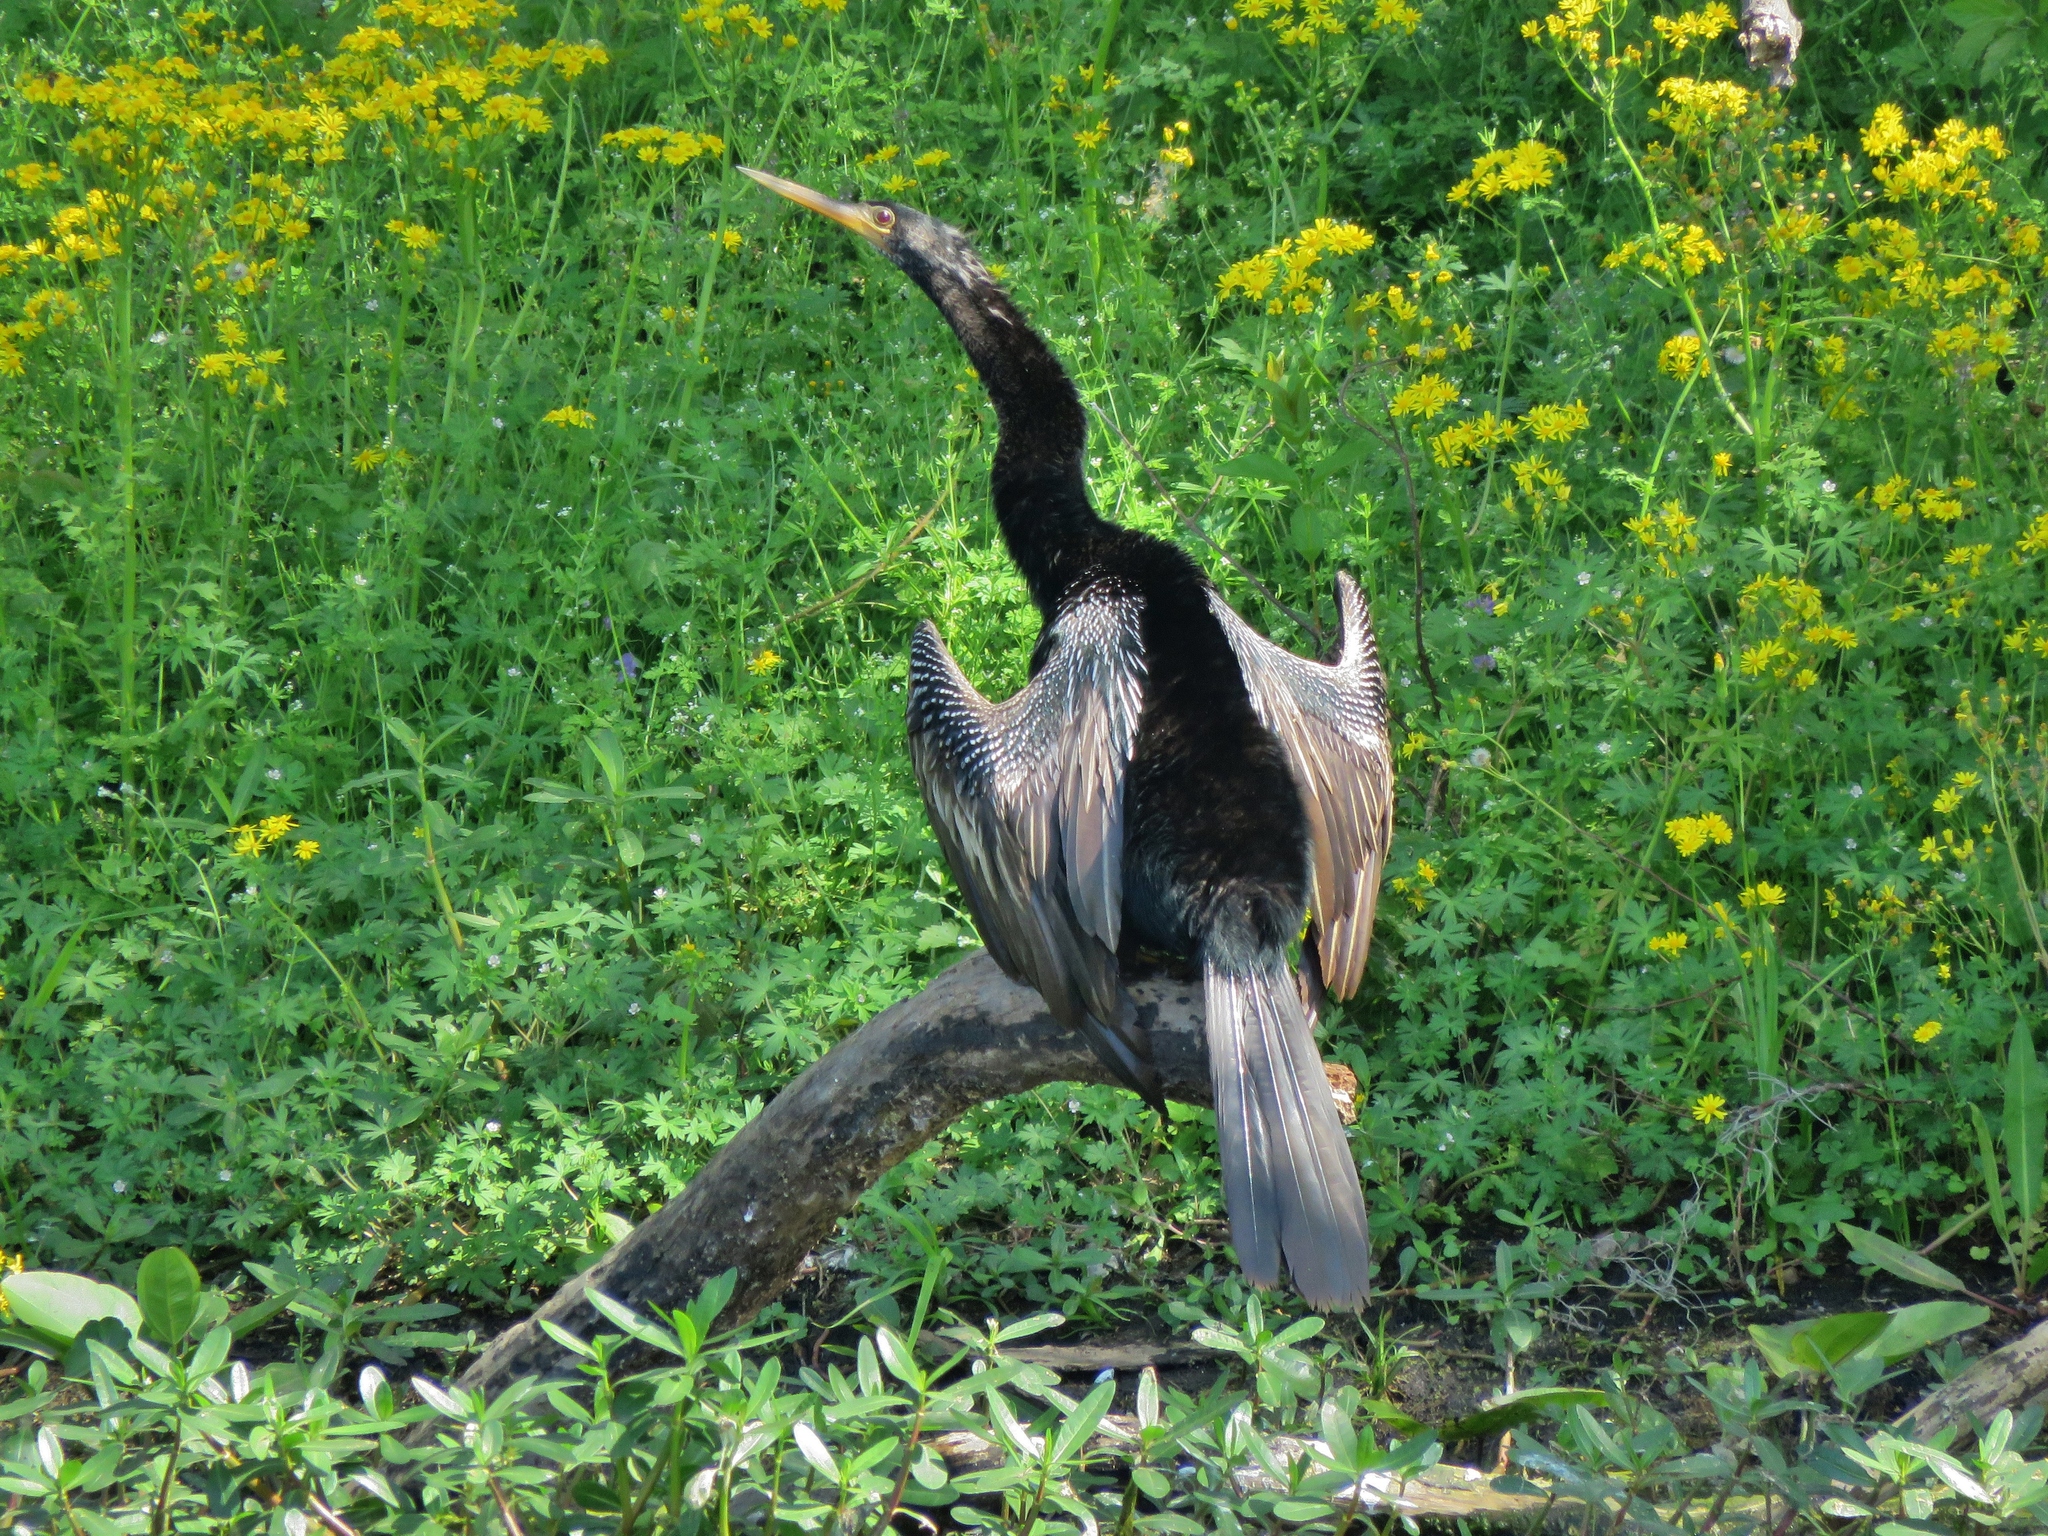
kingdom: Animalia
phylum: Chordata
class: Aves
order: Suliformes
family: Anhingidae
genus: Anhinga
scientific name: Anhinga anhinga
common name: Anhinga
